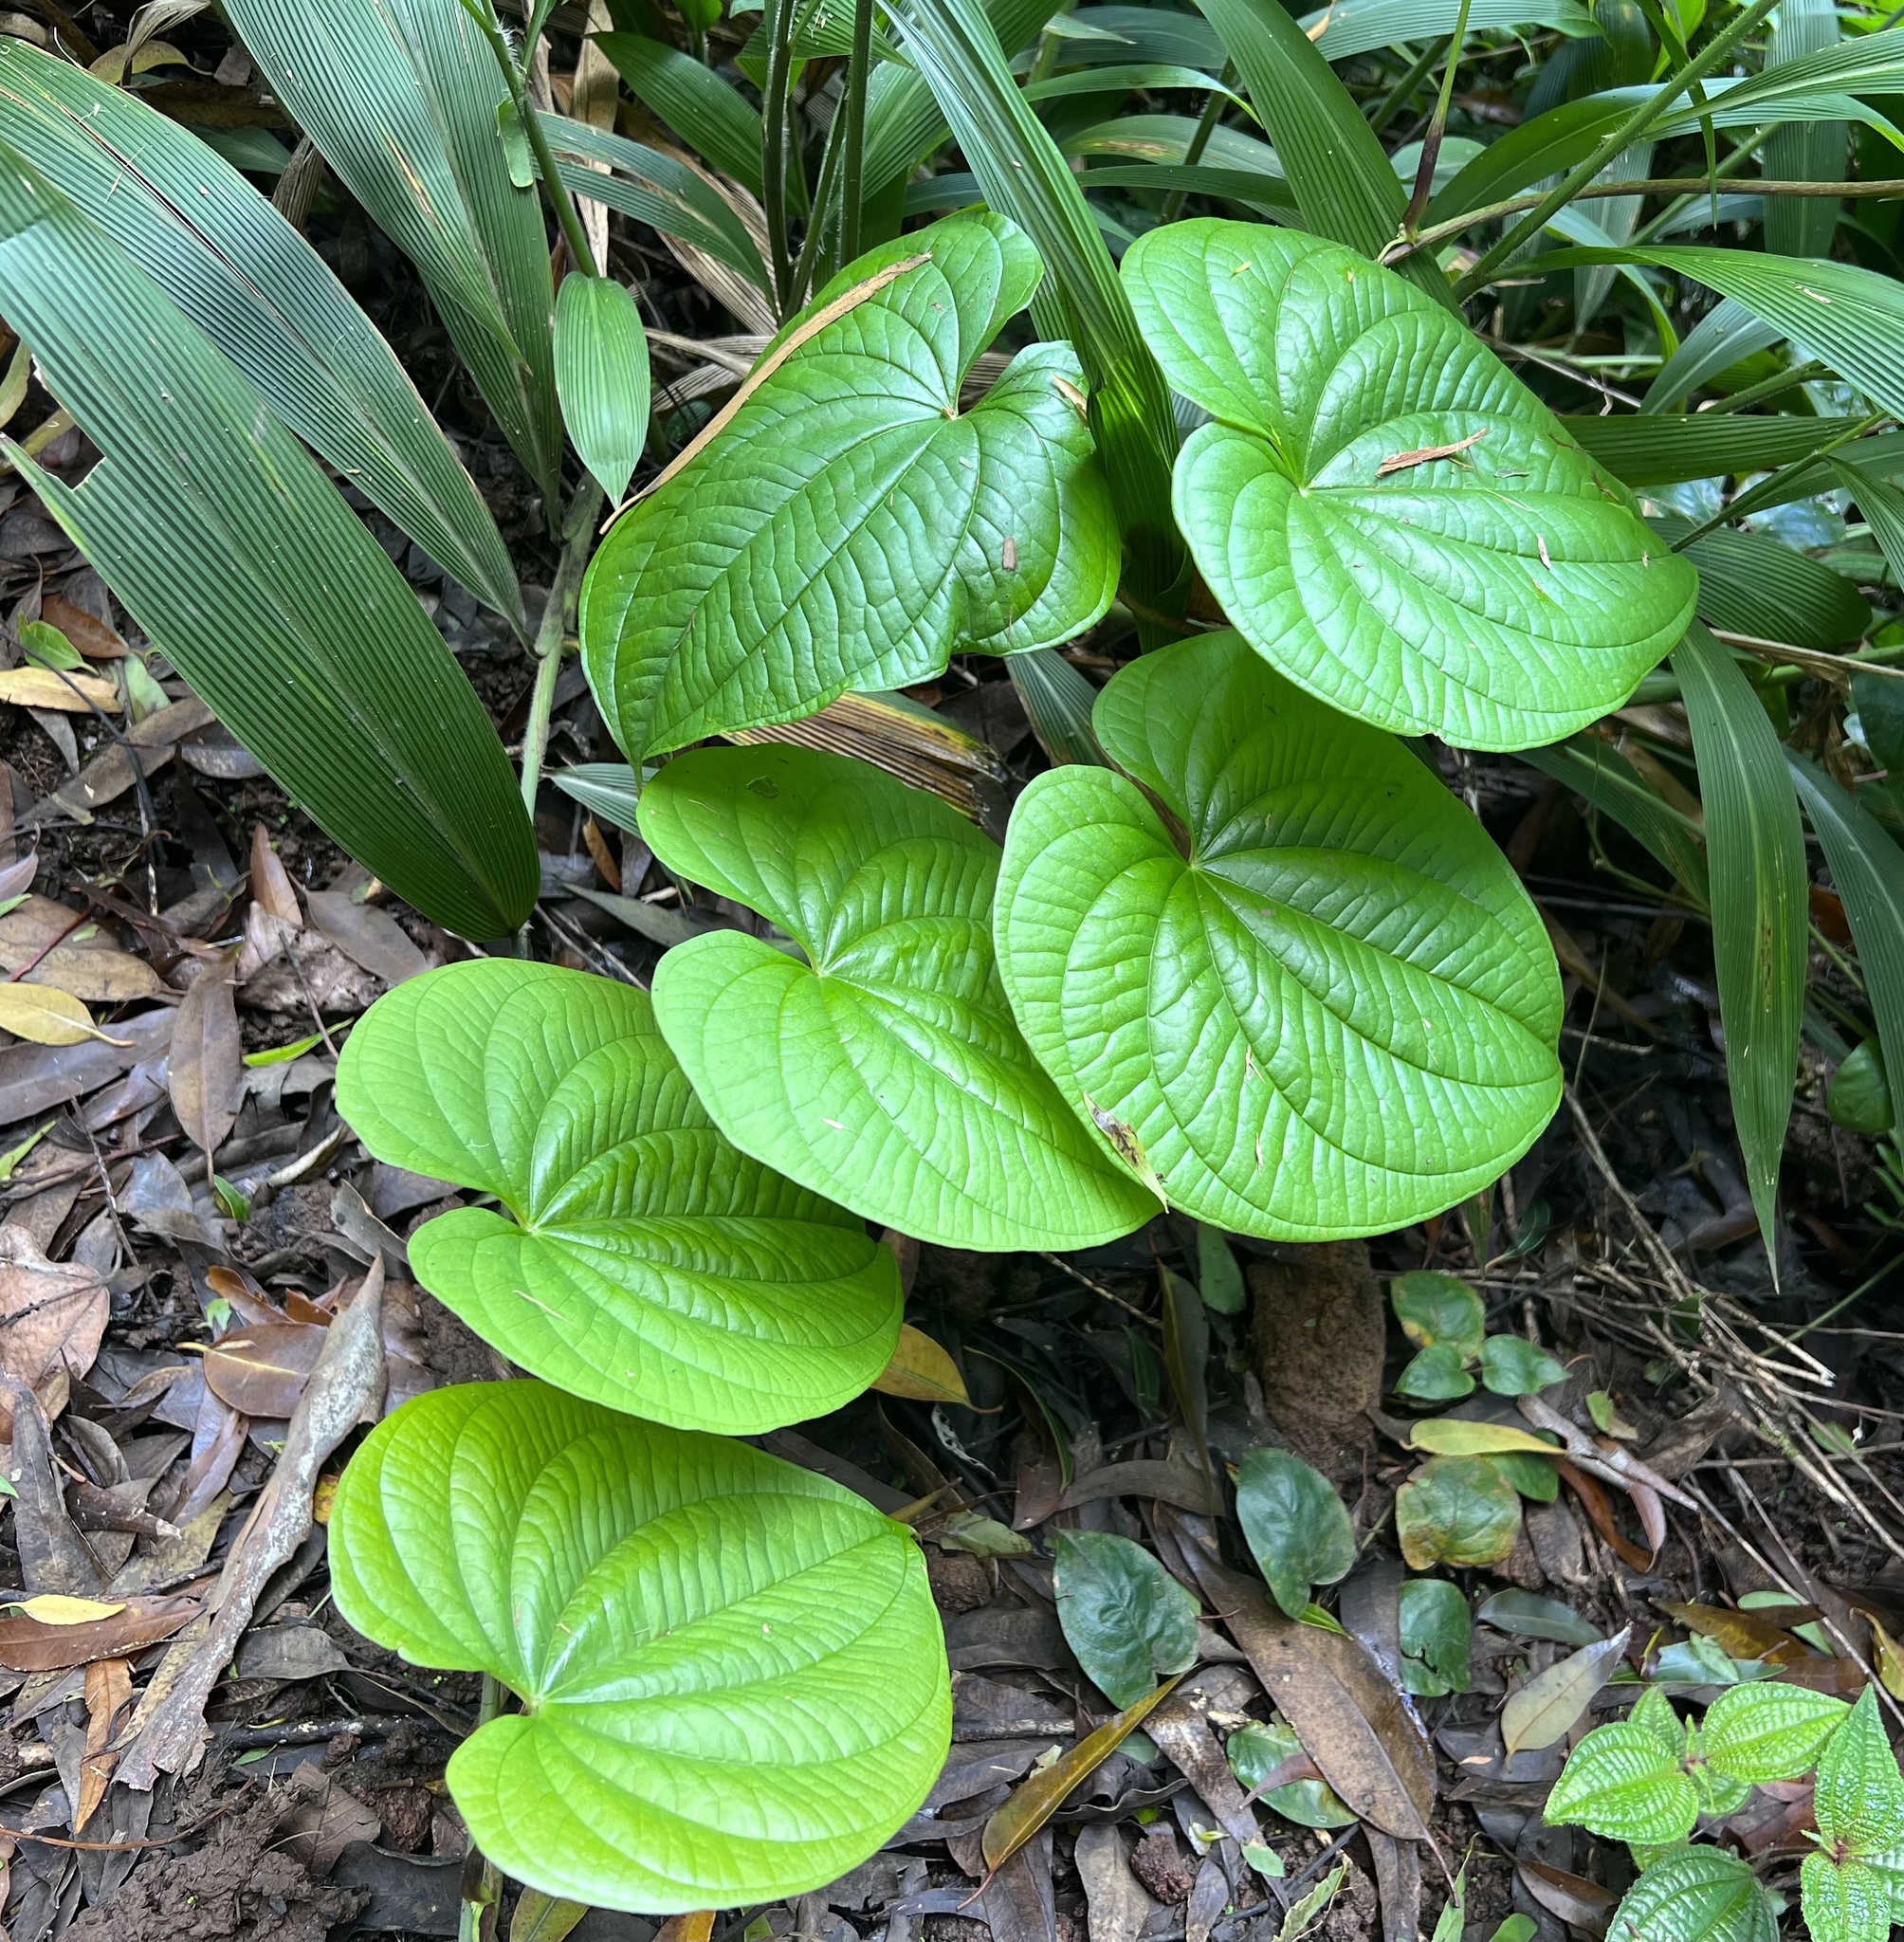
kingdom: Plantae
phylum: Tracheophyta
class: Liliopsida
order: Dioscoreales
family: Dioscoreaceae
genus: Dioscorea
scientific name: Dioscorea bulbifera
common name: Air yam
